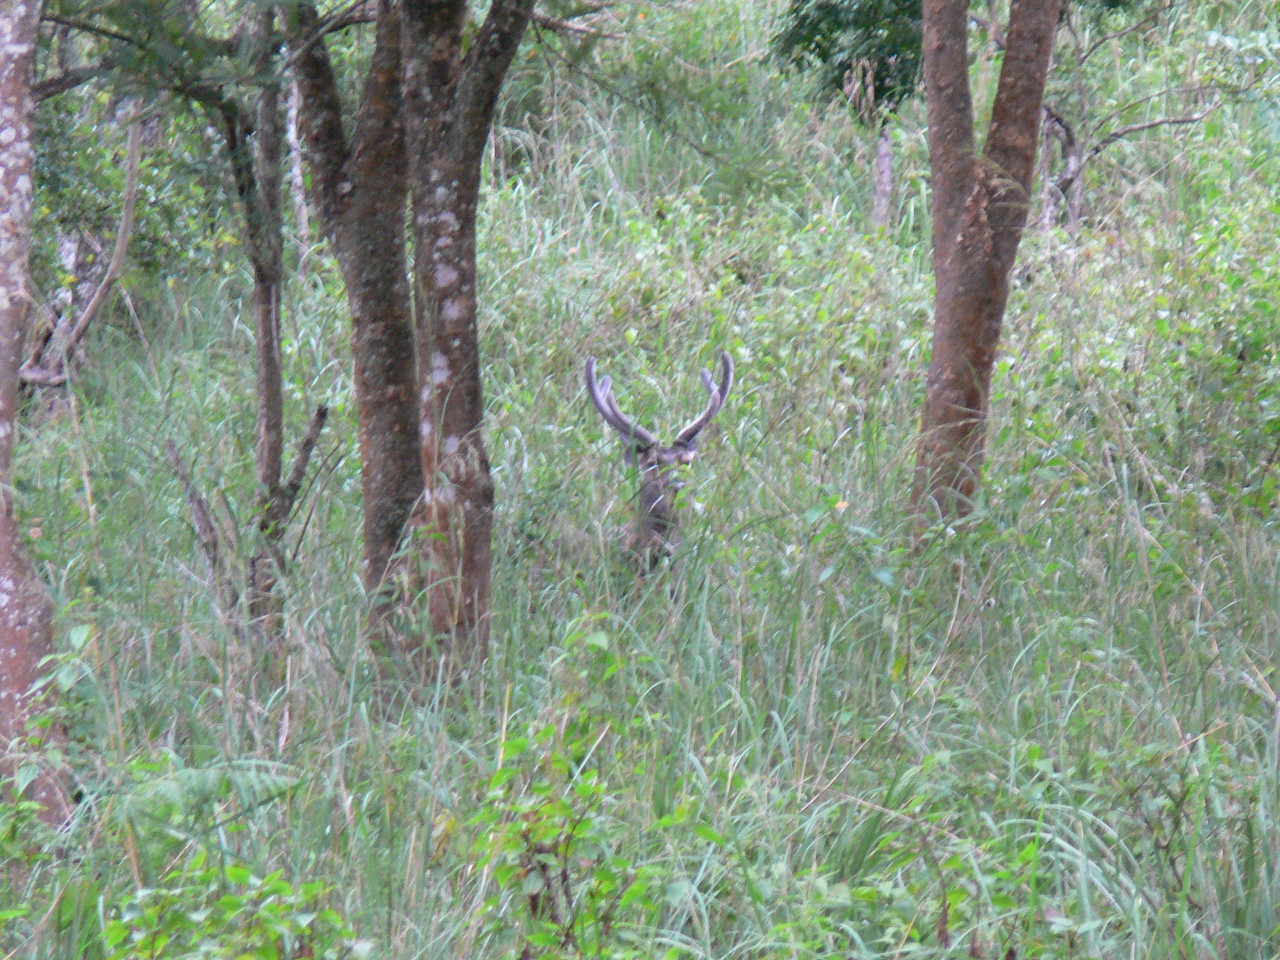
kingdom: Animalia
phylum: Chordata
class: Mammalia
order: Artiodactyla
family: Cervidae
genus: Axis
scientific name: Axis axis
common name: Chital
